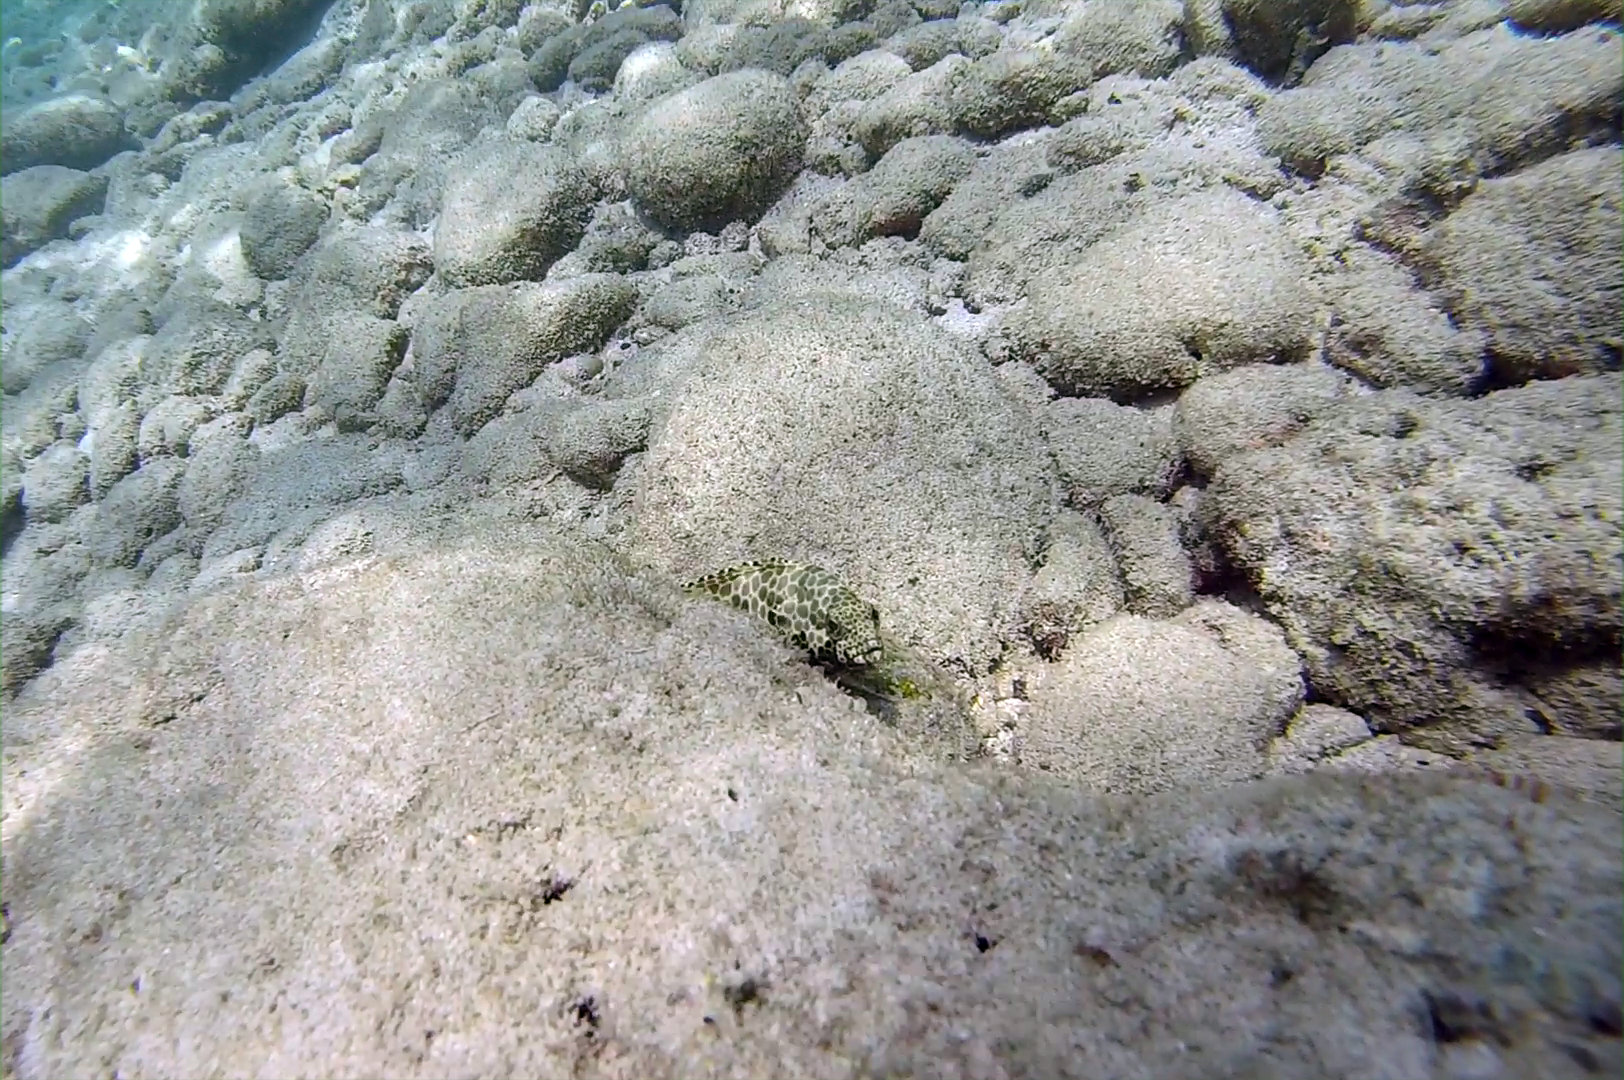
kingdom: Animalia
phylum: Chordata
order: Perciformes
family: Serranidae
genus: Epinephelus
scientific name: Epinephelus merra
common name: Honeycomb grouper
